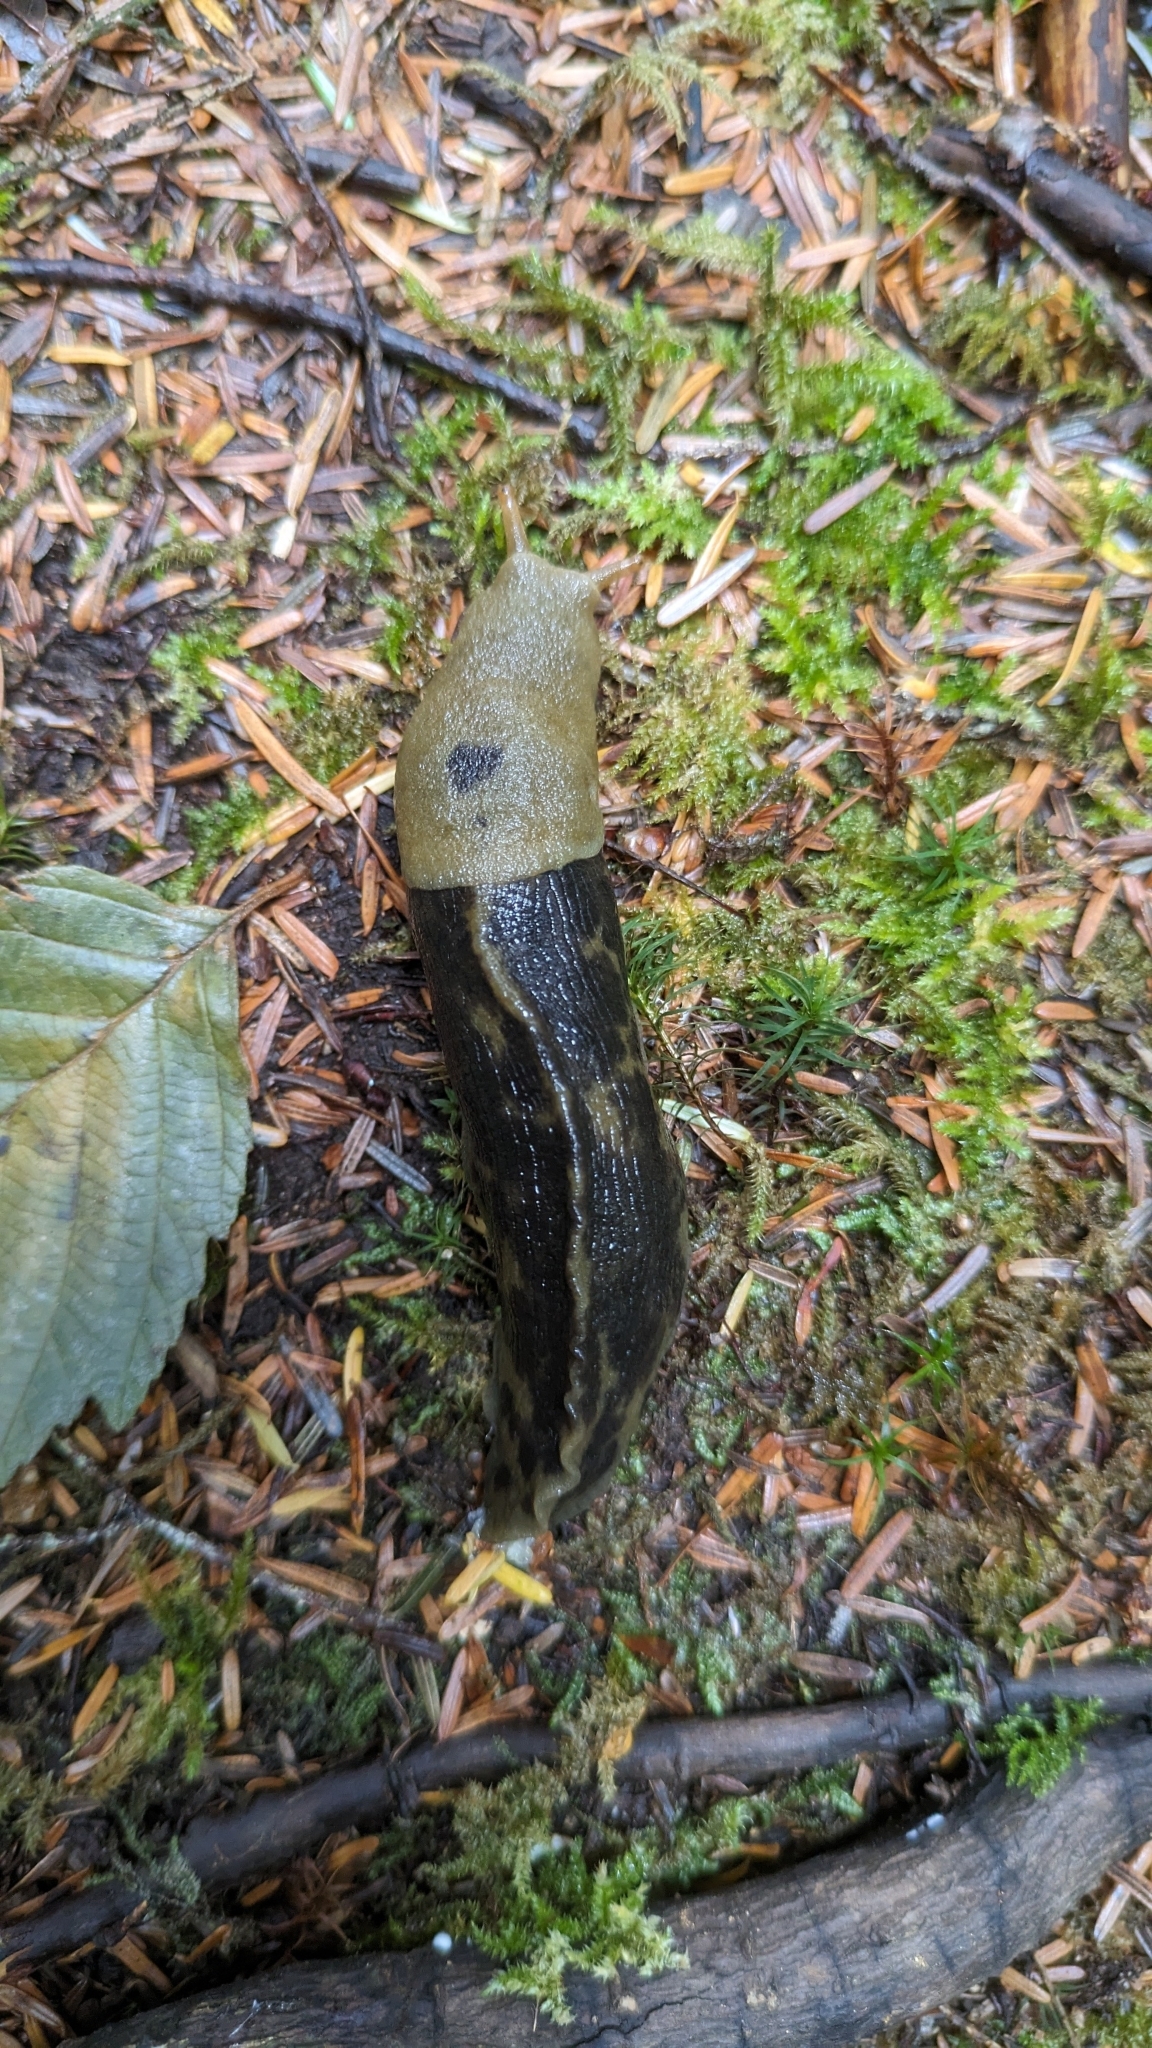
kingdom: Animalia
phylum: Mollusca
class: Gastropoda
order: Stylommatophora
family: Ariolimacidae
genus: Ariolimax
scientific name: Ariolimax columbianus
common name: Pacific banana slug
